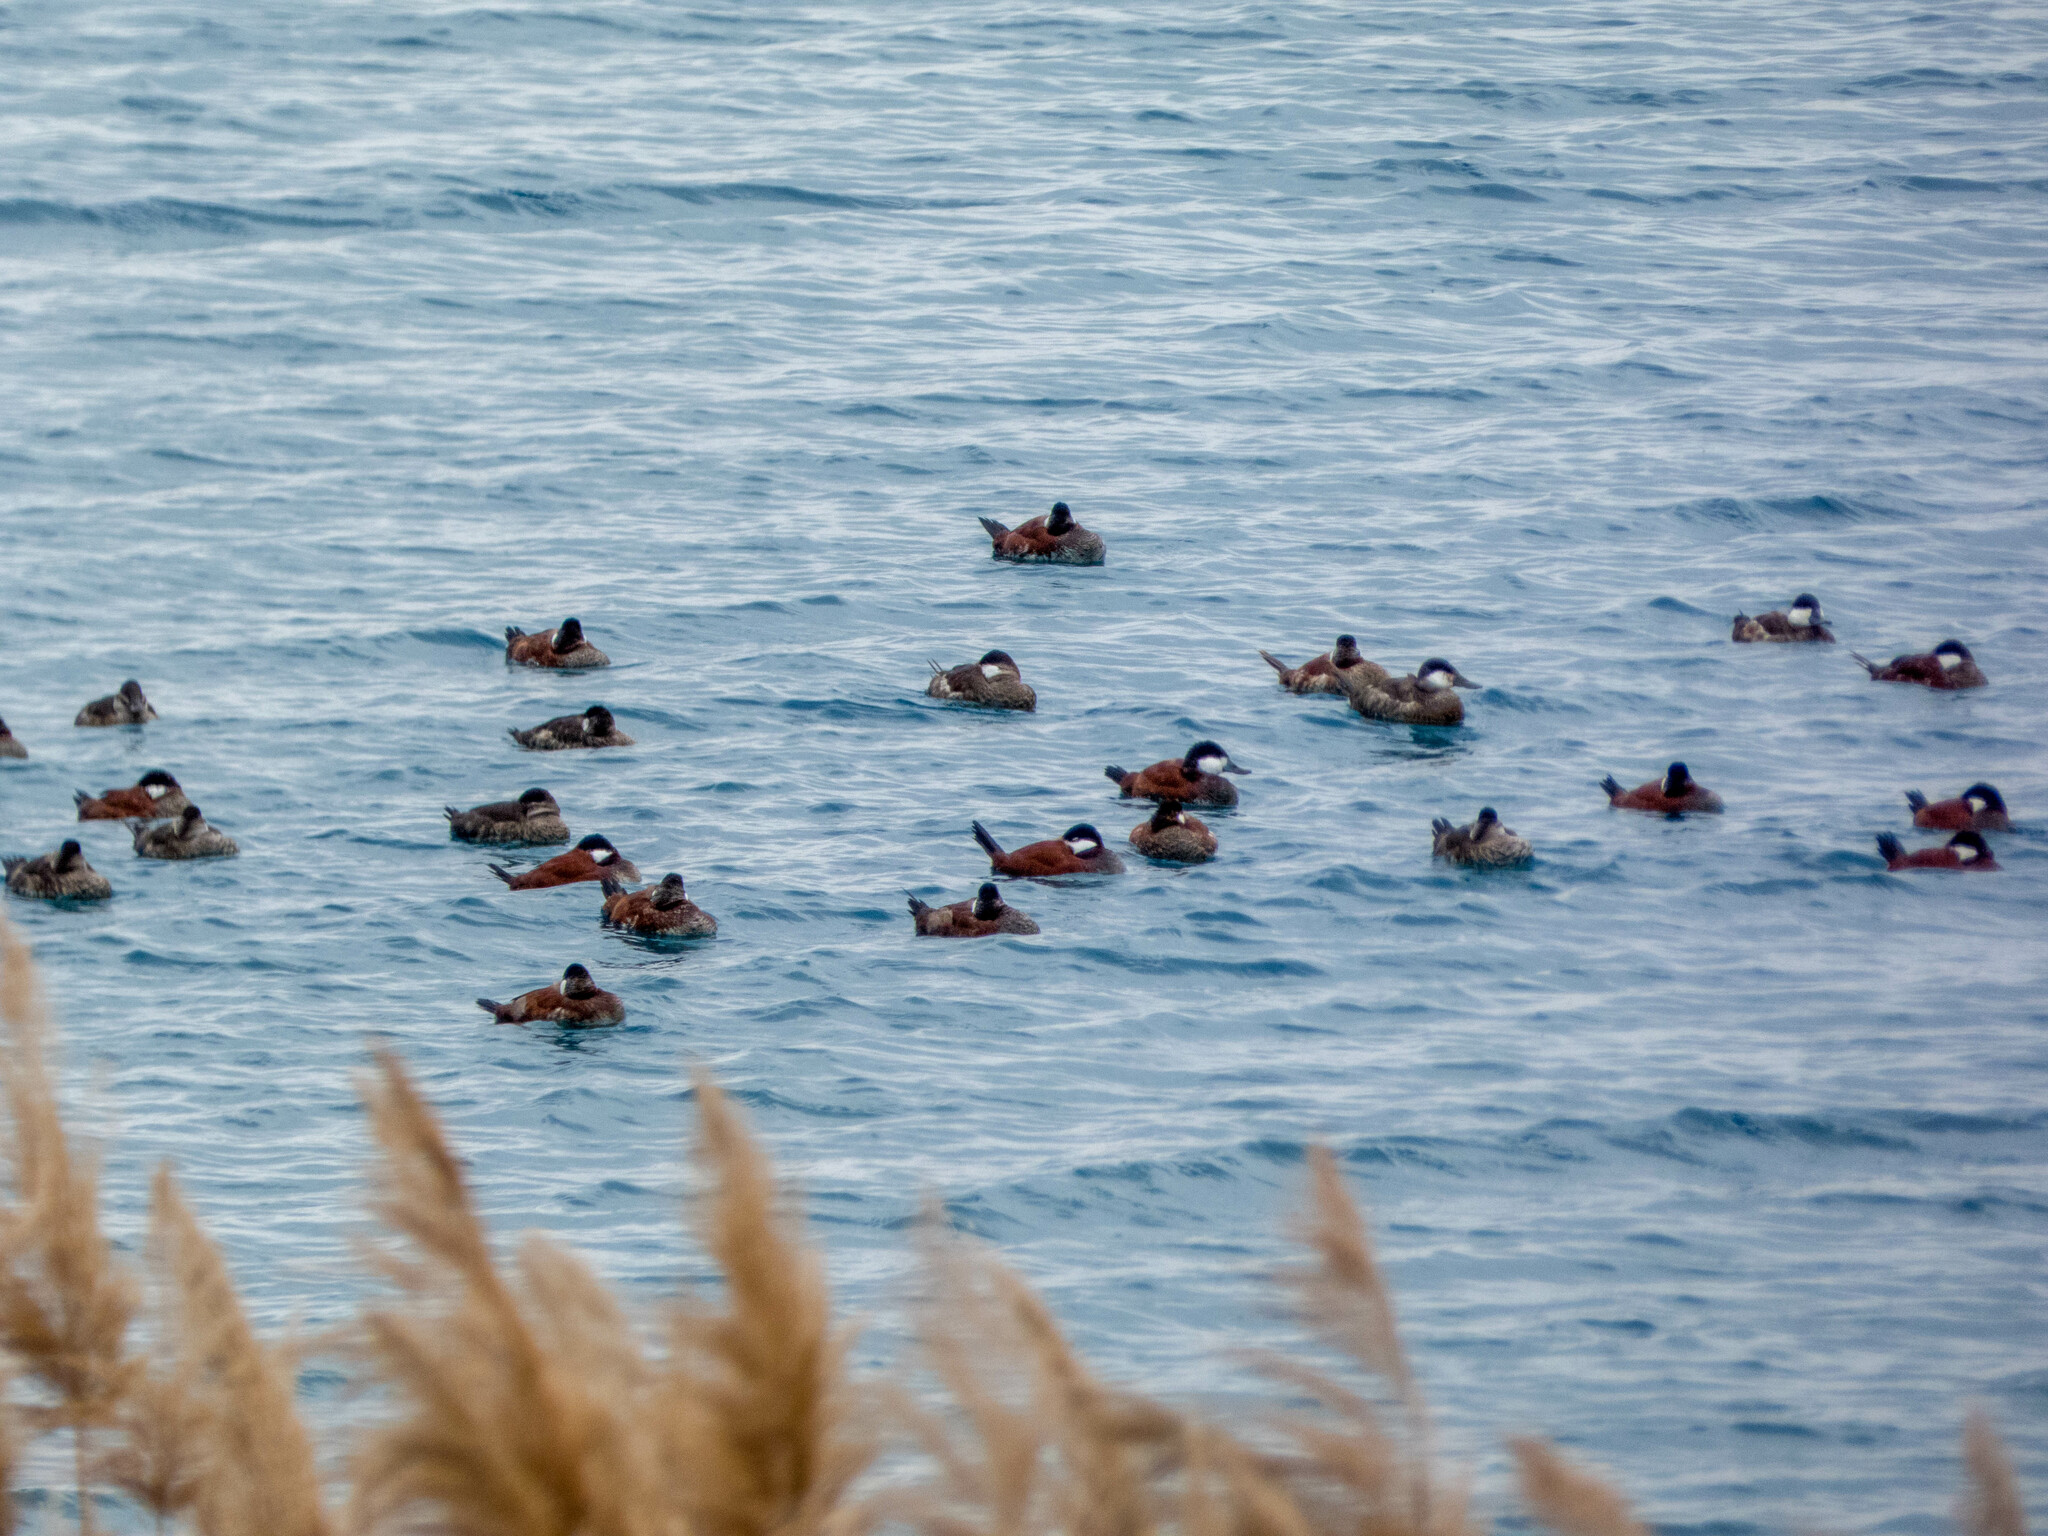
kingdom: Animalia
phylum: Chordata
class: Aves
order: Anseriformes
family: Anatidae
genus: Oxyura
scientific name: Oxyura jamaicensis
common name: Ruddy duck
